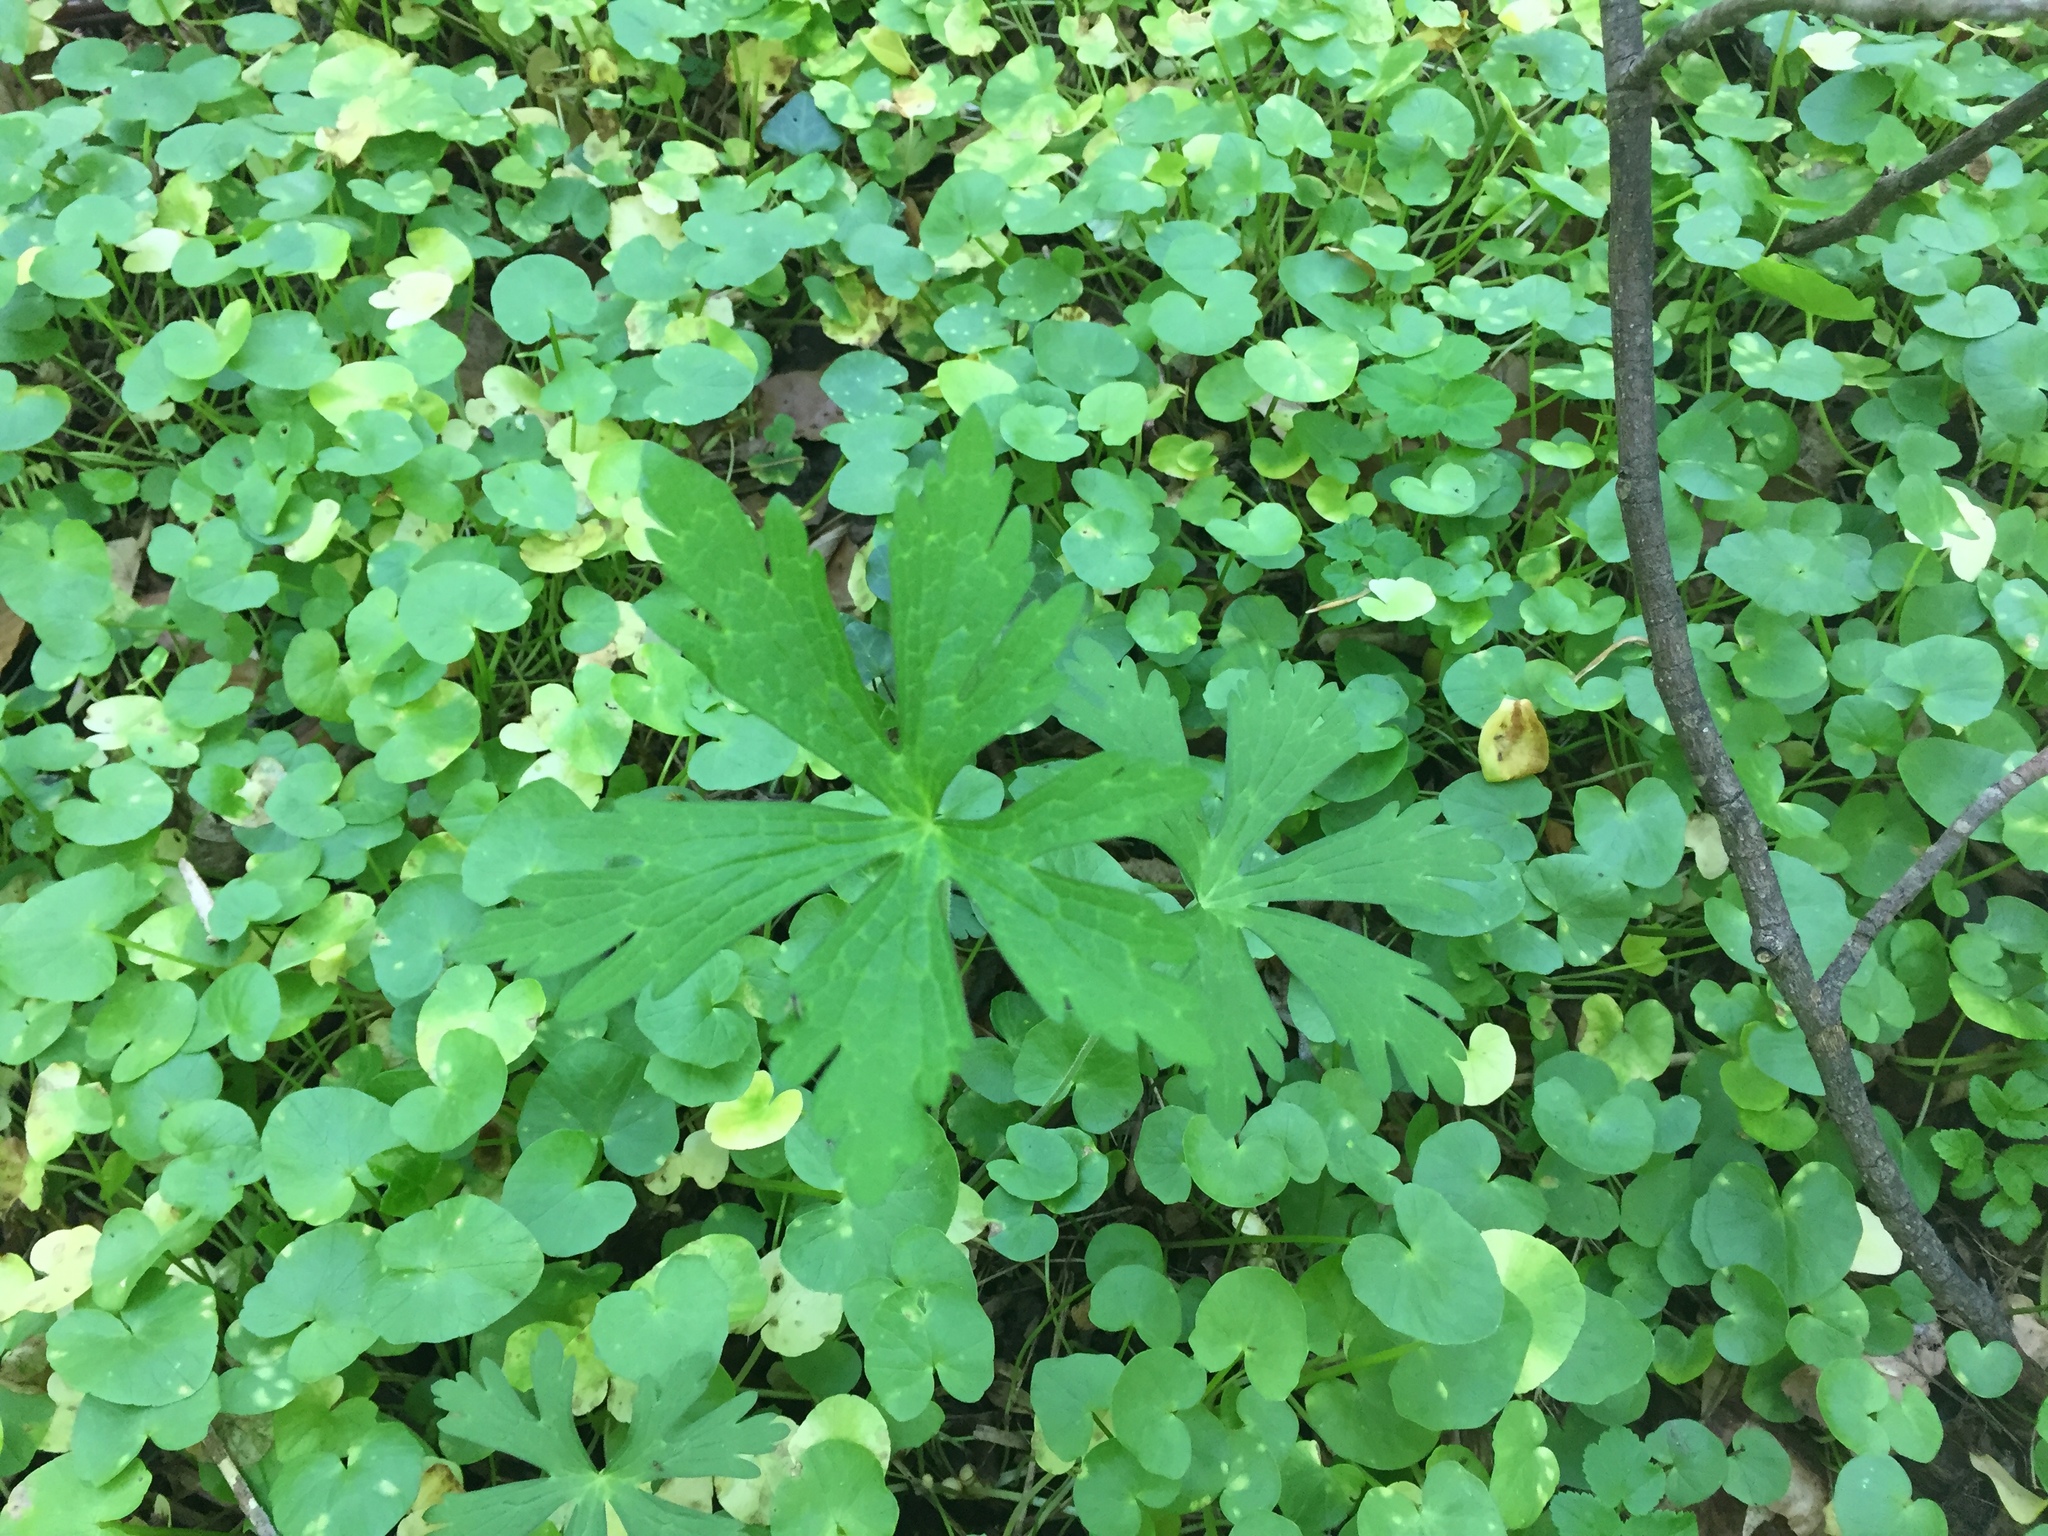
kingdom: Plantae
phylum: Tracheophyta
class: Magnoliopsida
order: Geraniales
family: Geraniaceae
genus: Geranium
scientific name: Geranium maculatum
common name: Spotted geranium
